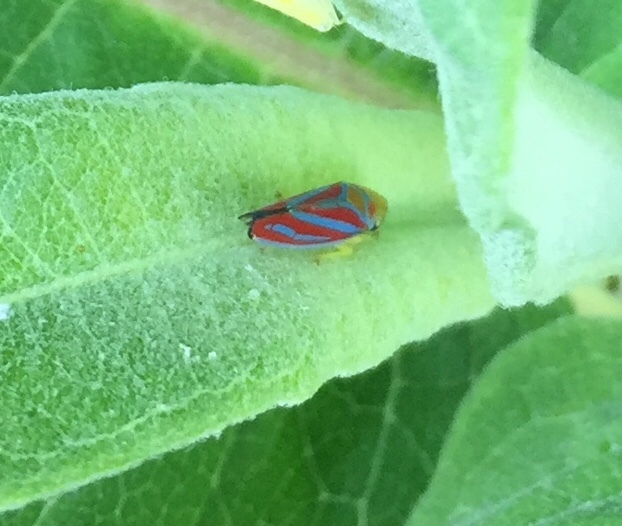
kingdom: Animalia
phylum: Arthropoda
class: Insecta
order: Hemiptera
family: Cicadellidae
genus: Graphocephala
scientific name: Graphocephala coccinea
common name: Candy-striped leafhopper
